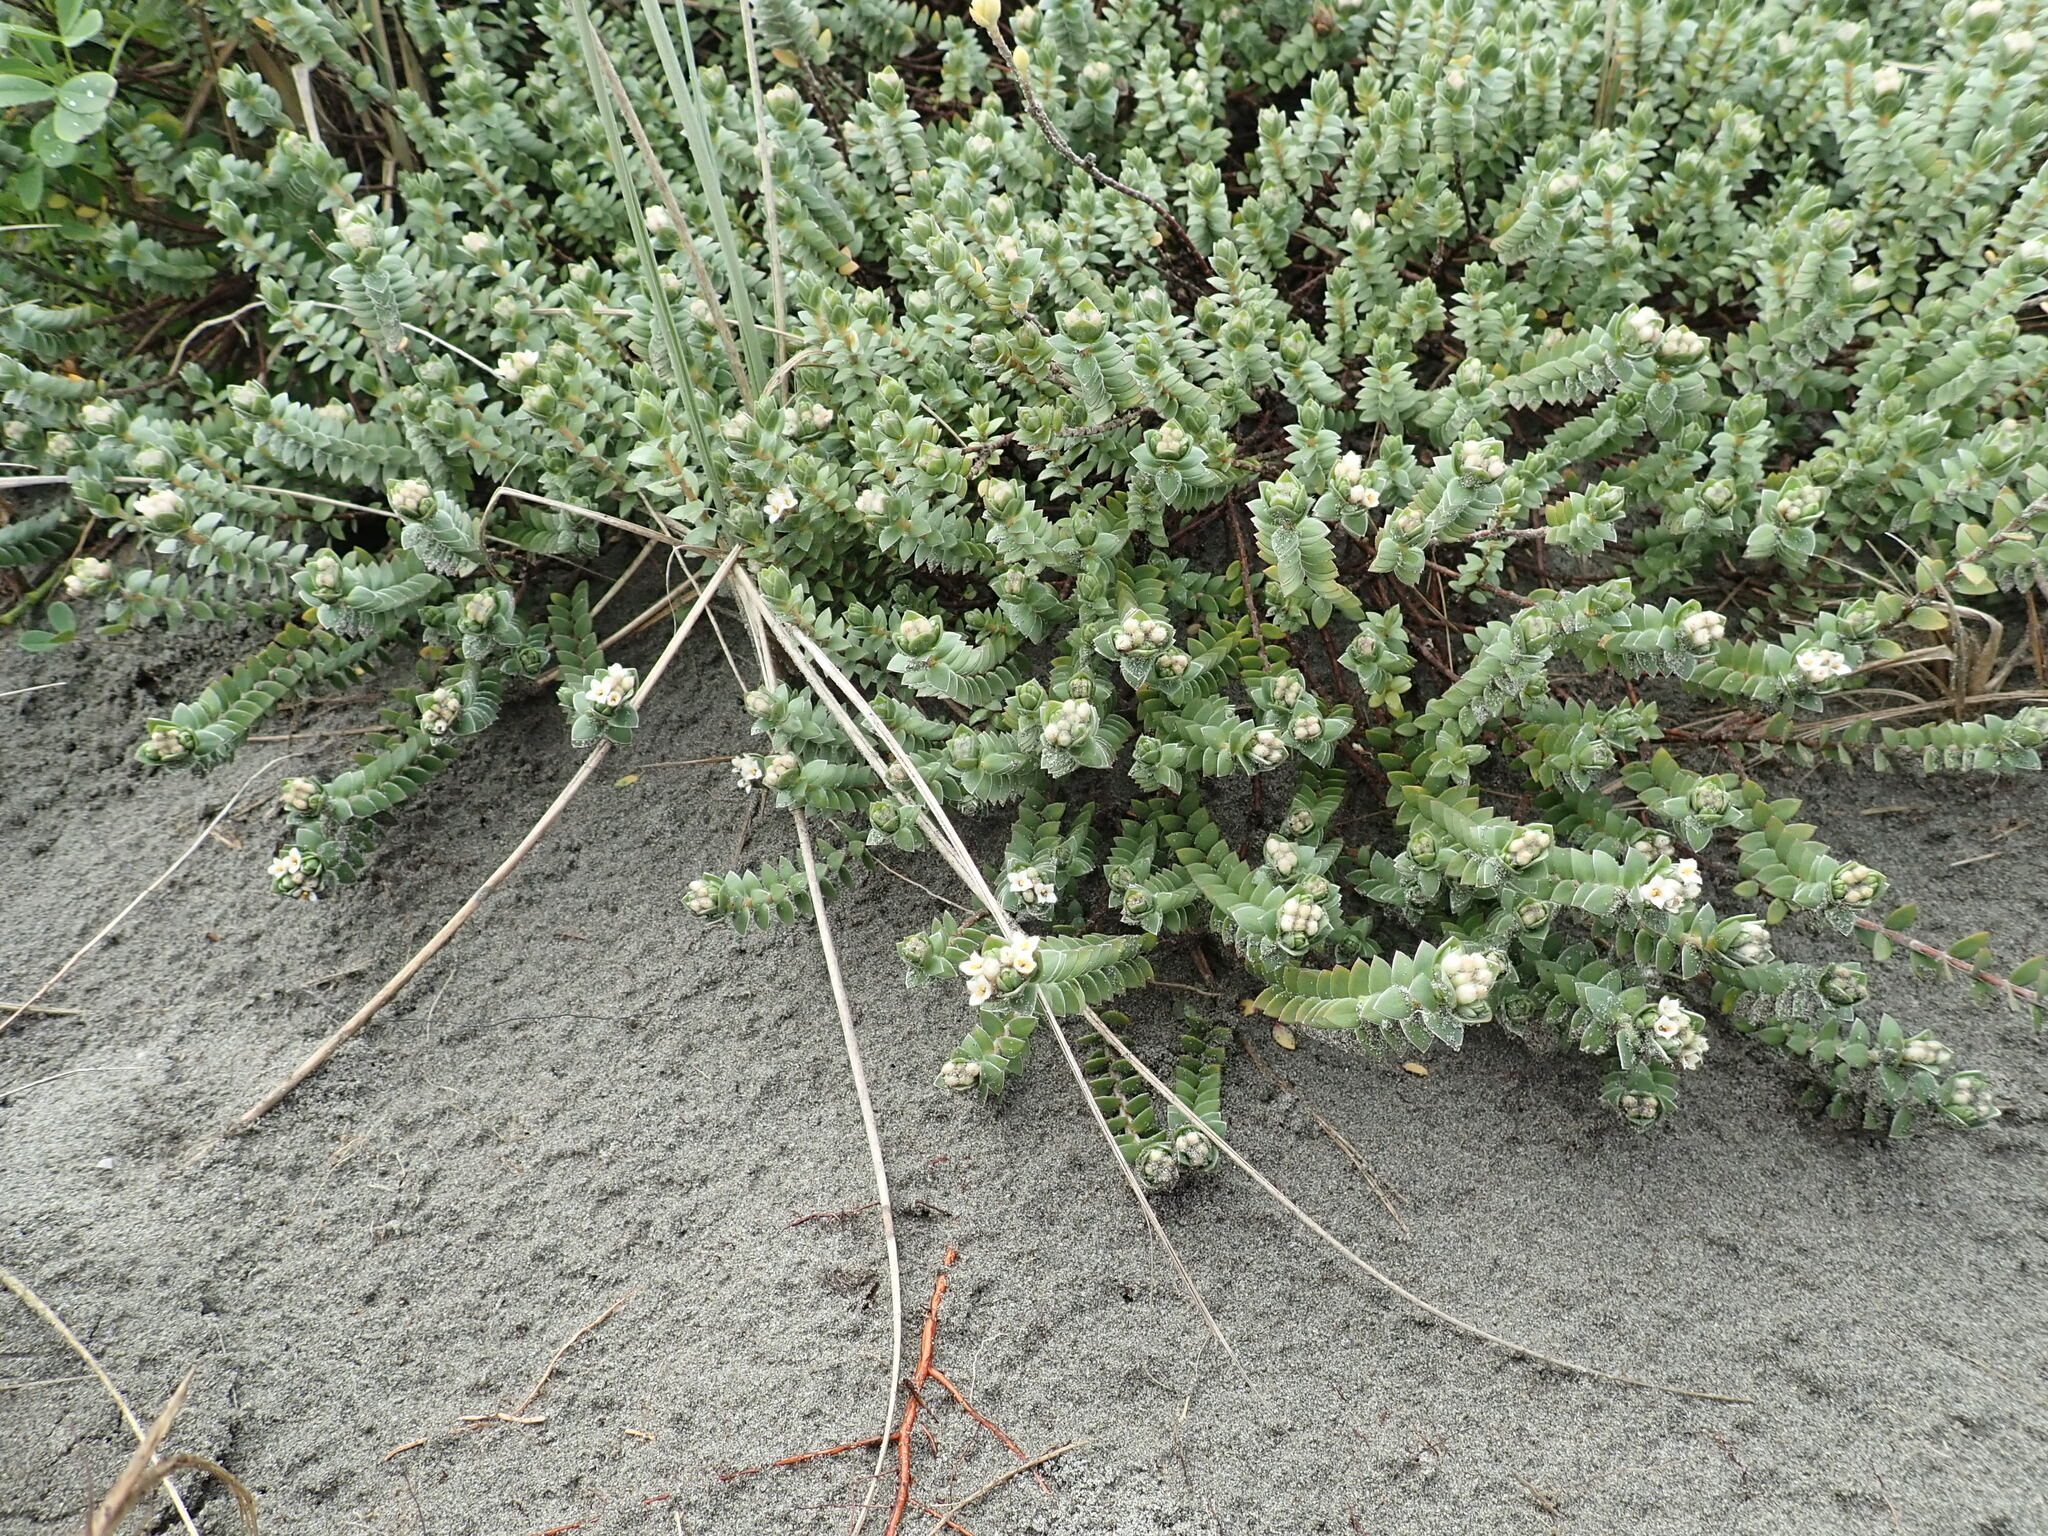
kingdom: Plantae
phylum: Tracheophyta
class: Magnoliopsida
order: Malvales
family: Thymelaeaceae
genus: Pimelea
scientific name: Pimelea villosa
